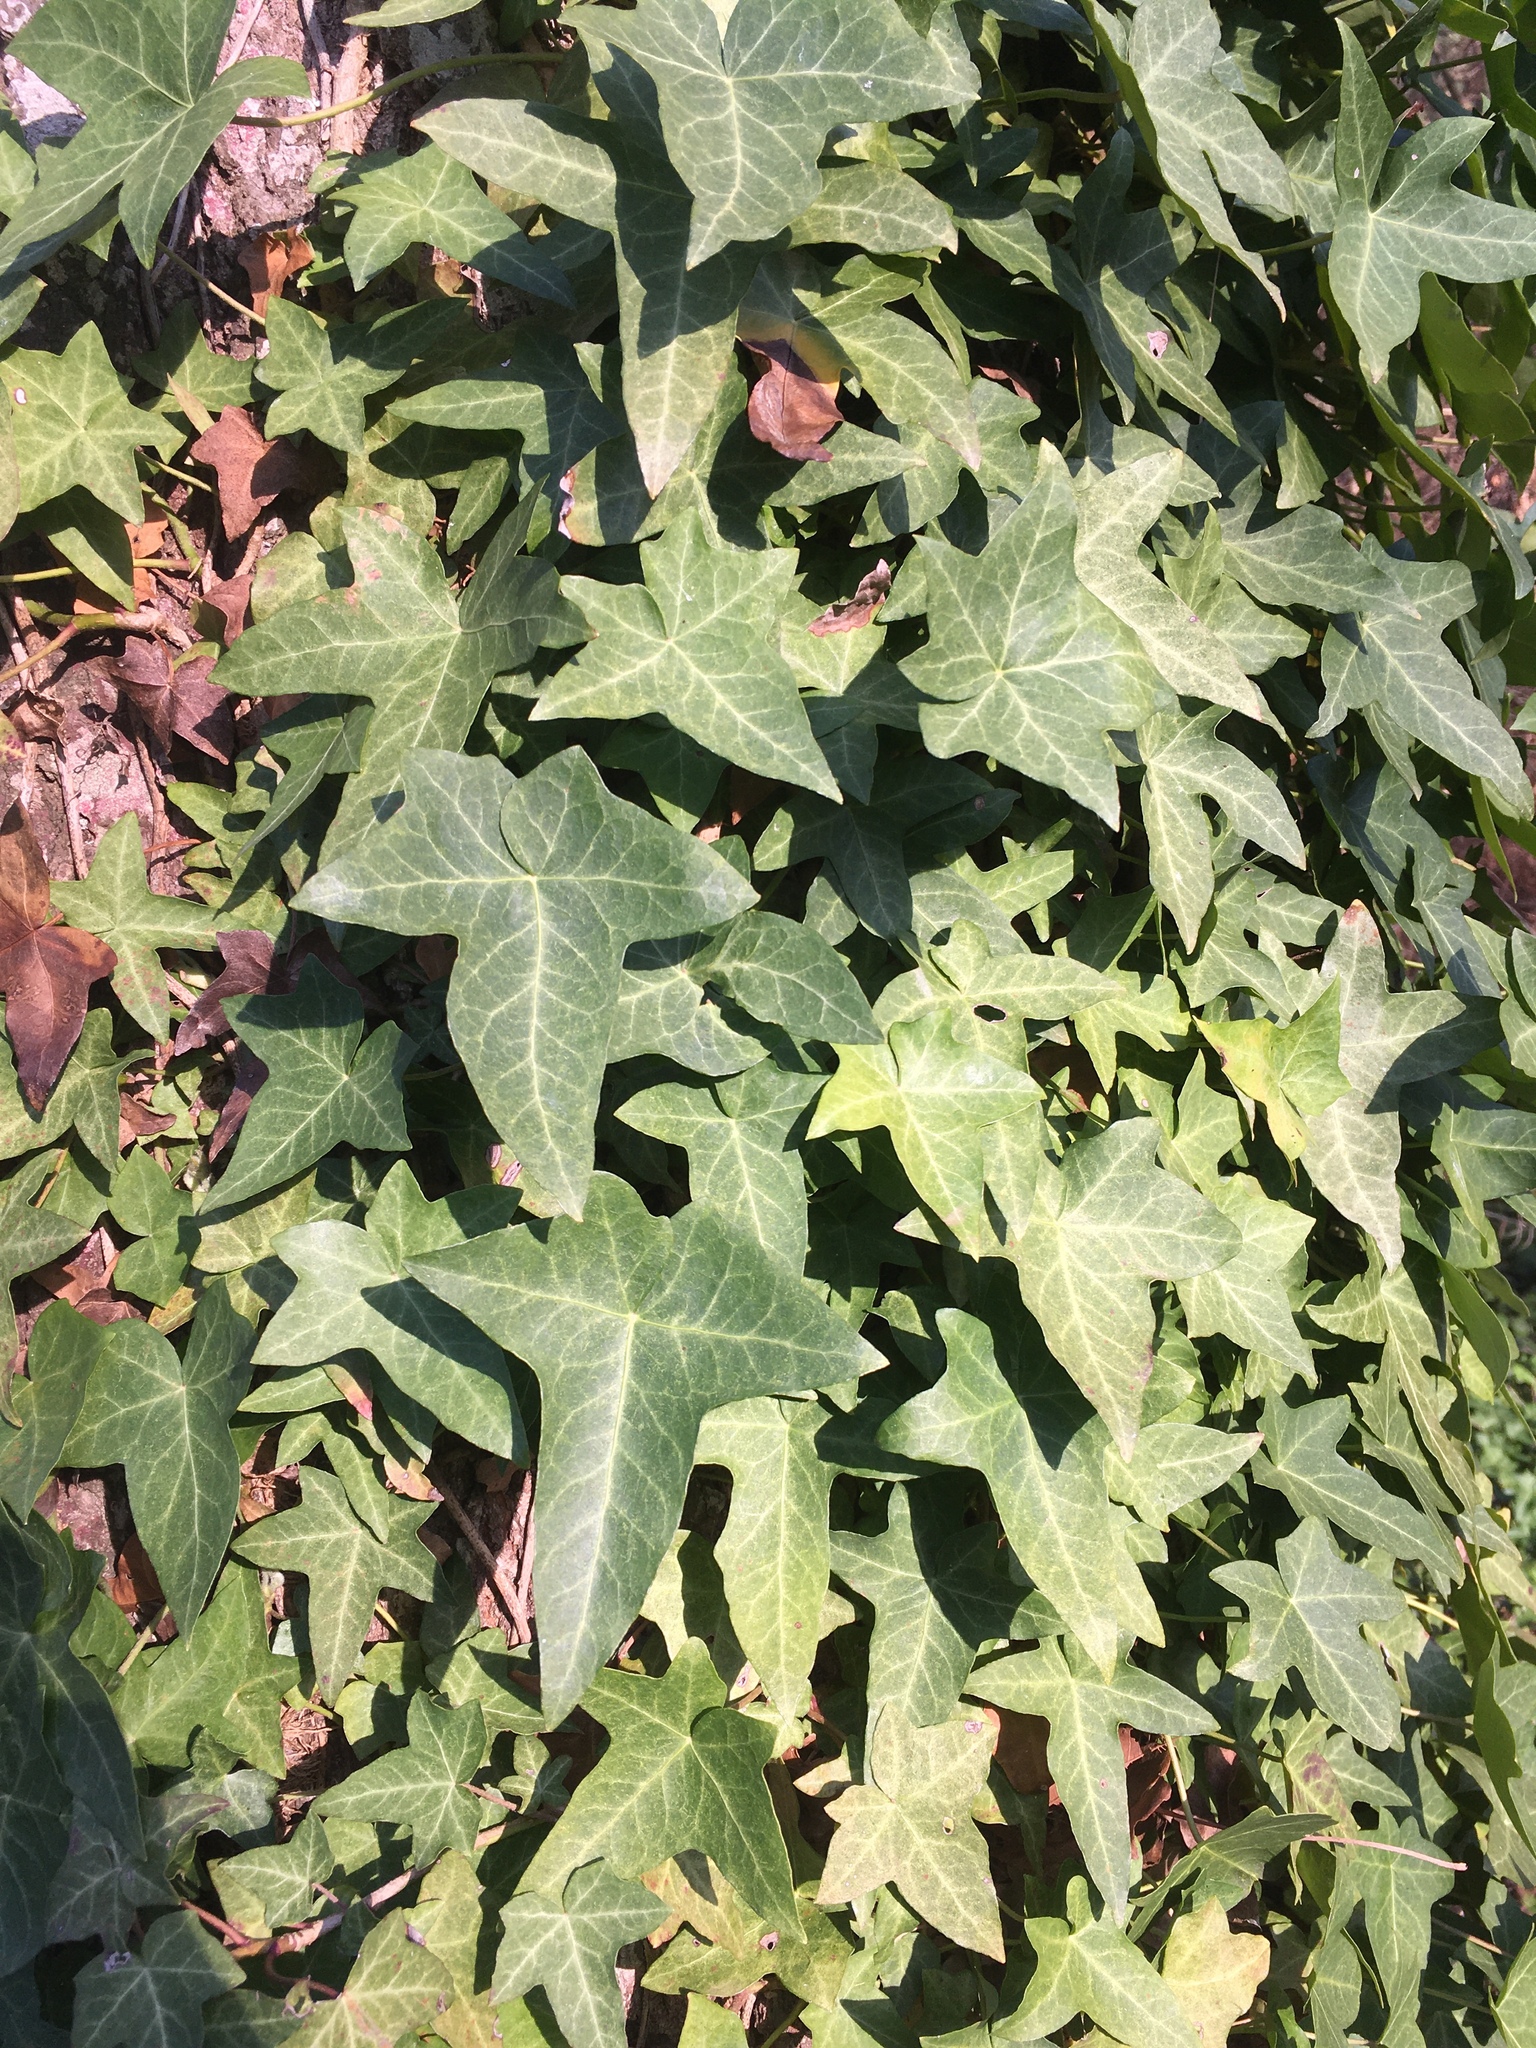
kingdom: Plantae
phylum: Tracheophyta
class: Magnoliopsida
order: Apiales
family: Araliaceae
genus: Hedera
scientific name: Hedera
